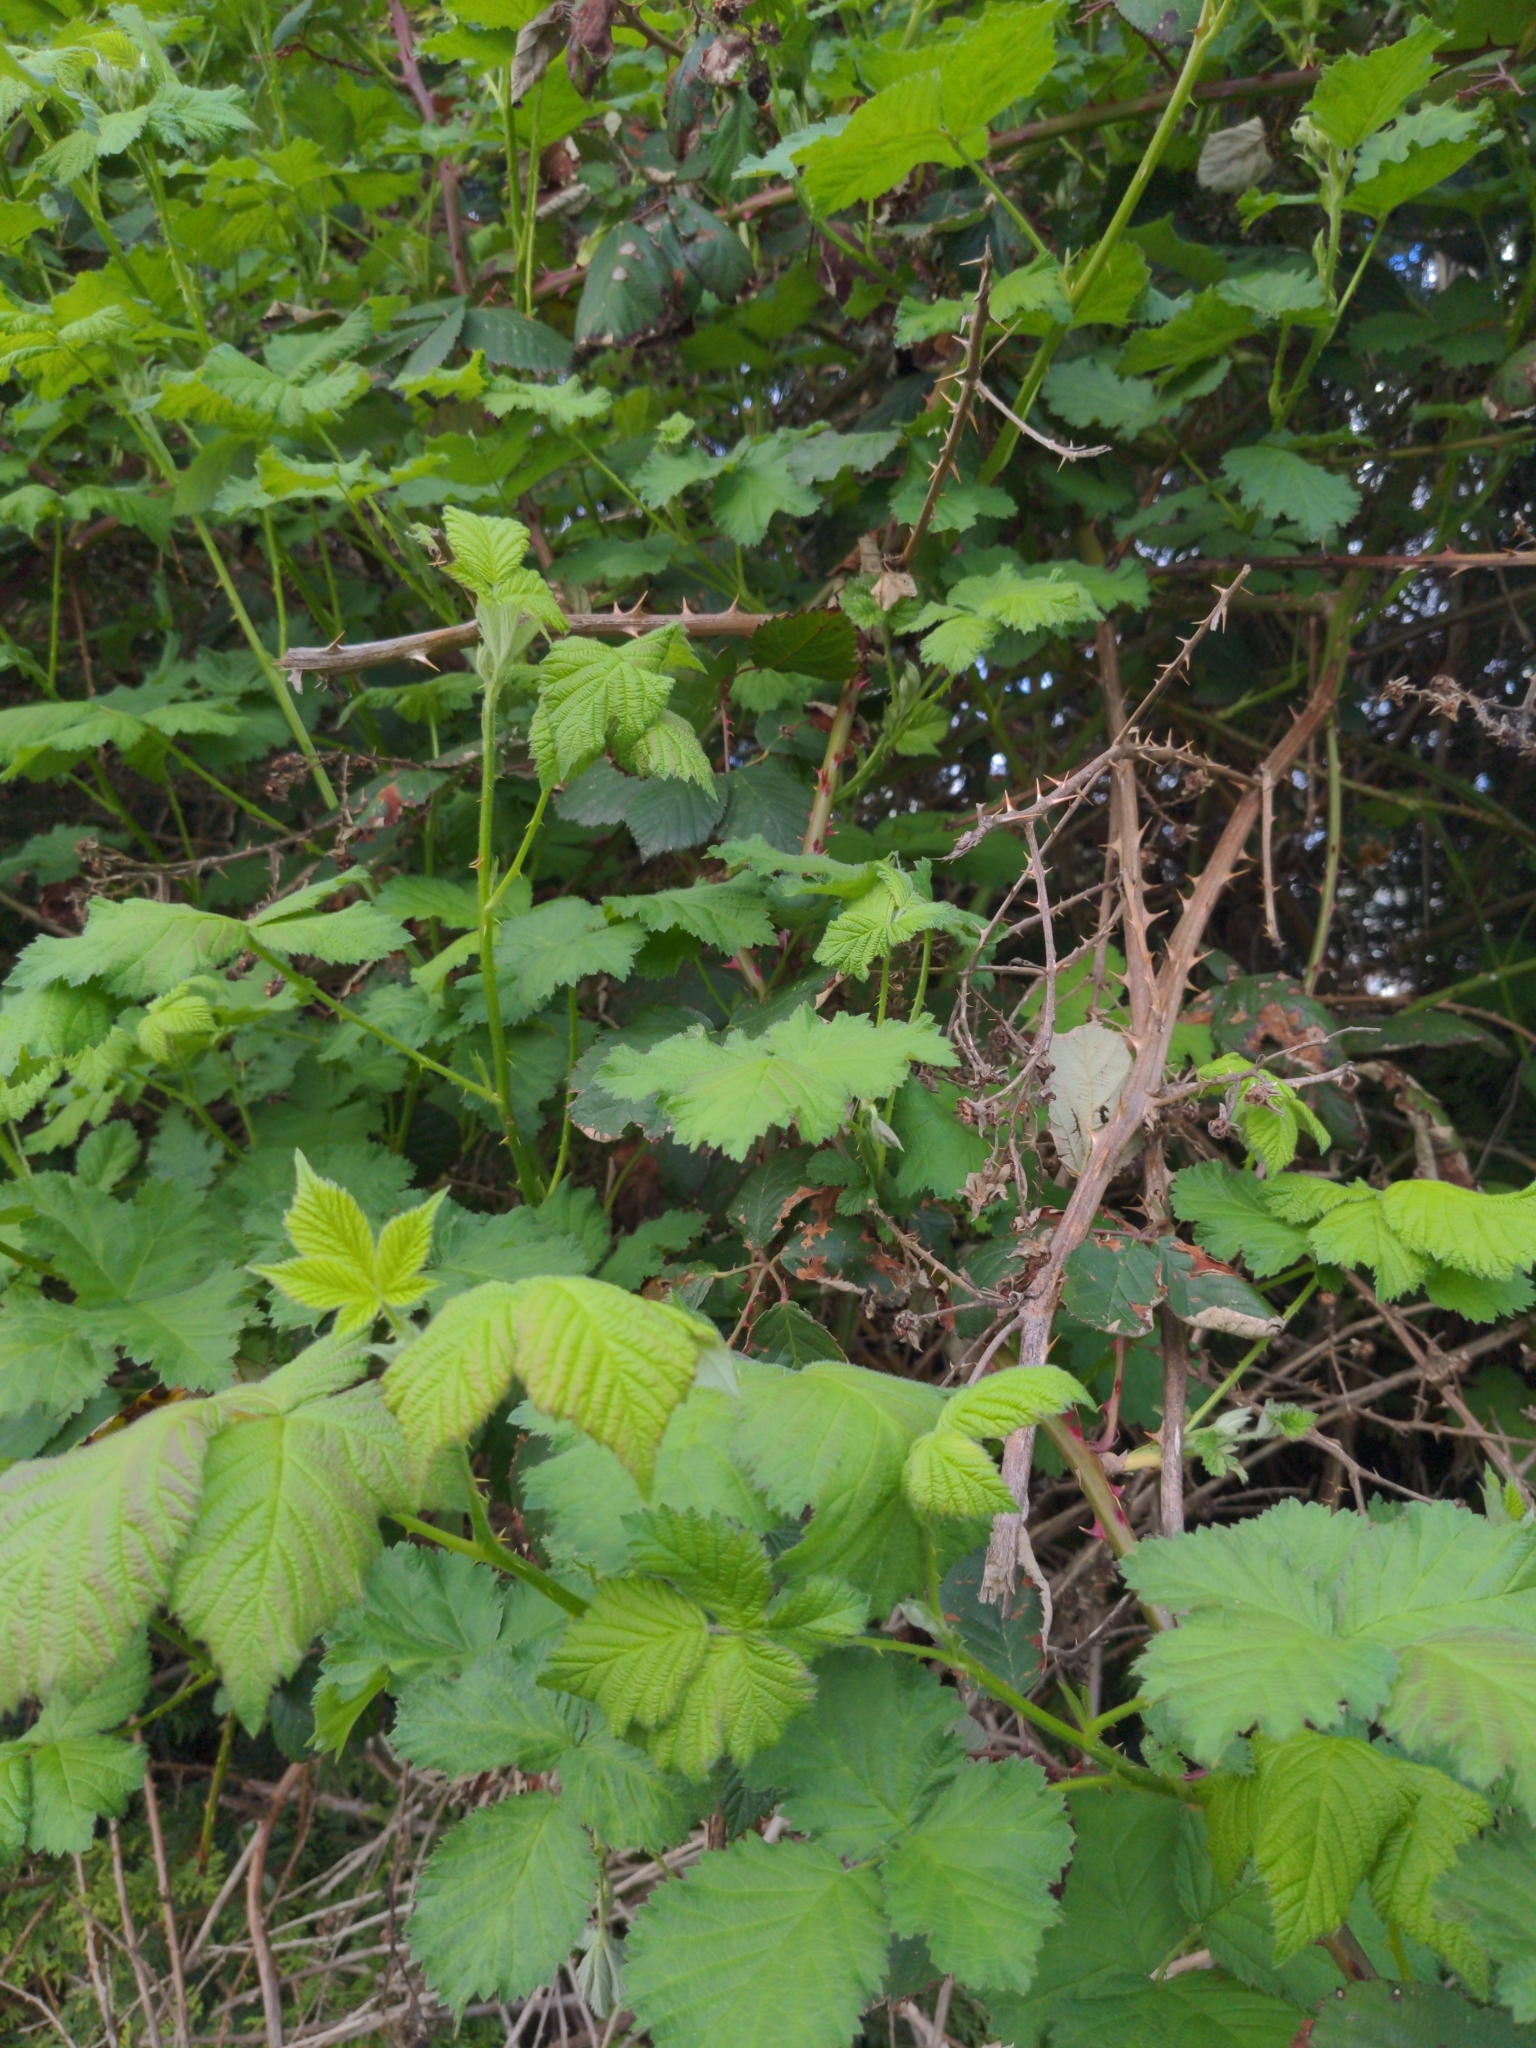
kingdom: Plantae
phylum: Tracheophyta
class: Magnoliopsida
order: Rosales
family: Rosaceae
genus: Rubus
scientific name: Rubus bifrons
